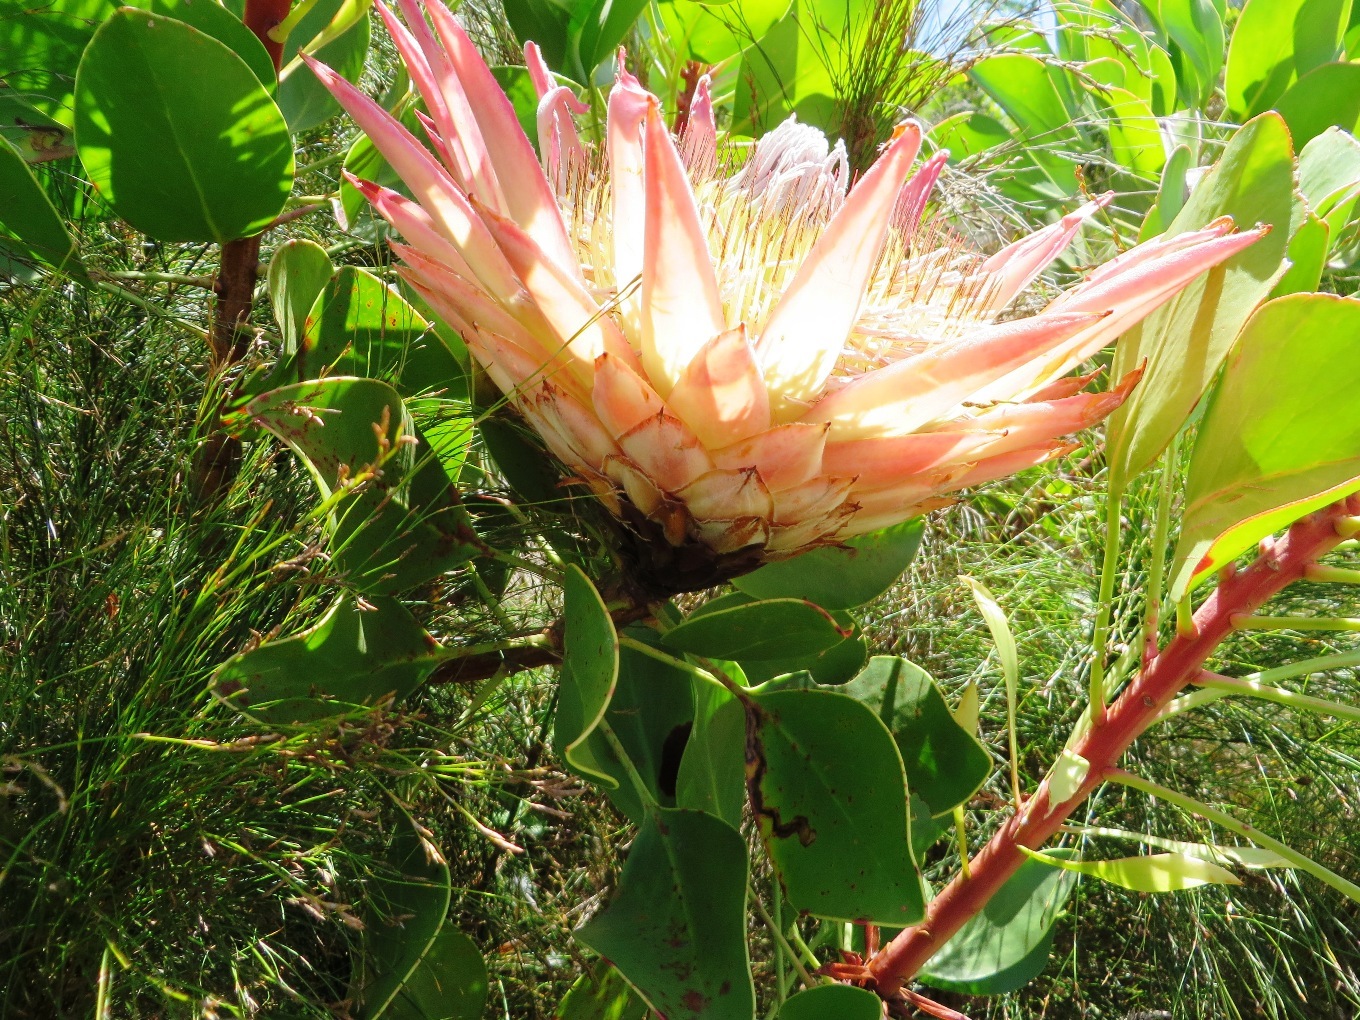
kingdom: Plantae
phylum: Tracheophyta
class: Magnoliopsida
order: Proteales
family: Proteaceae
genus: Protea
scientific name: Protea cynaroides
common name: King protea
